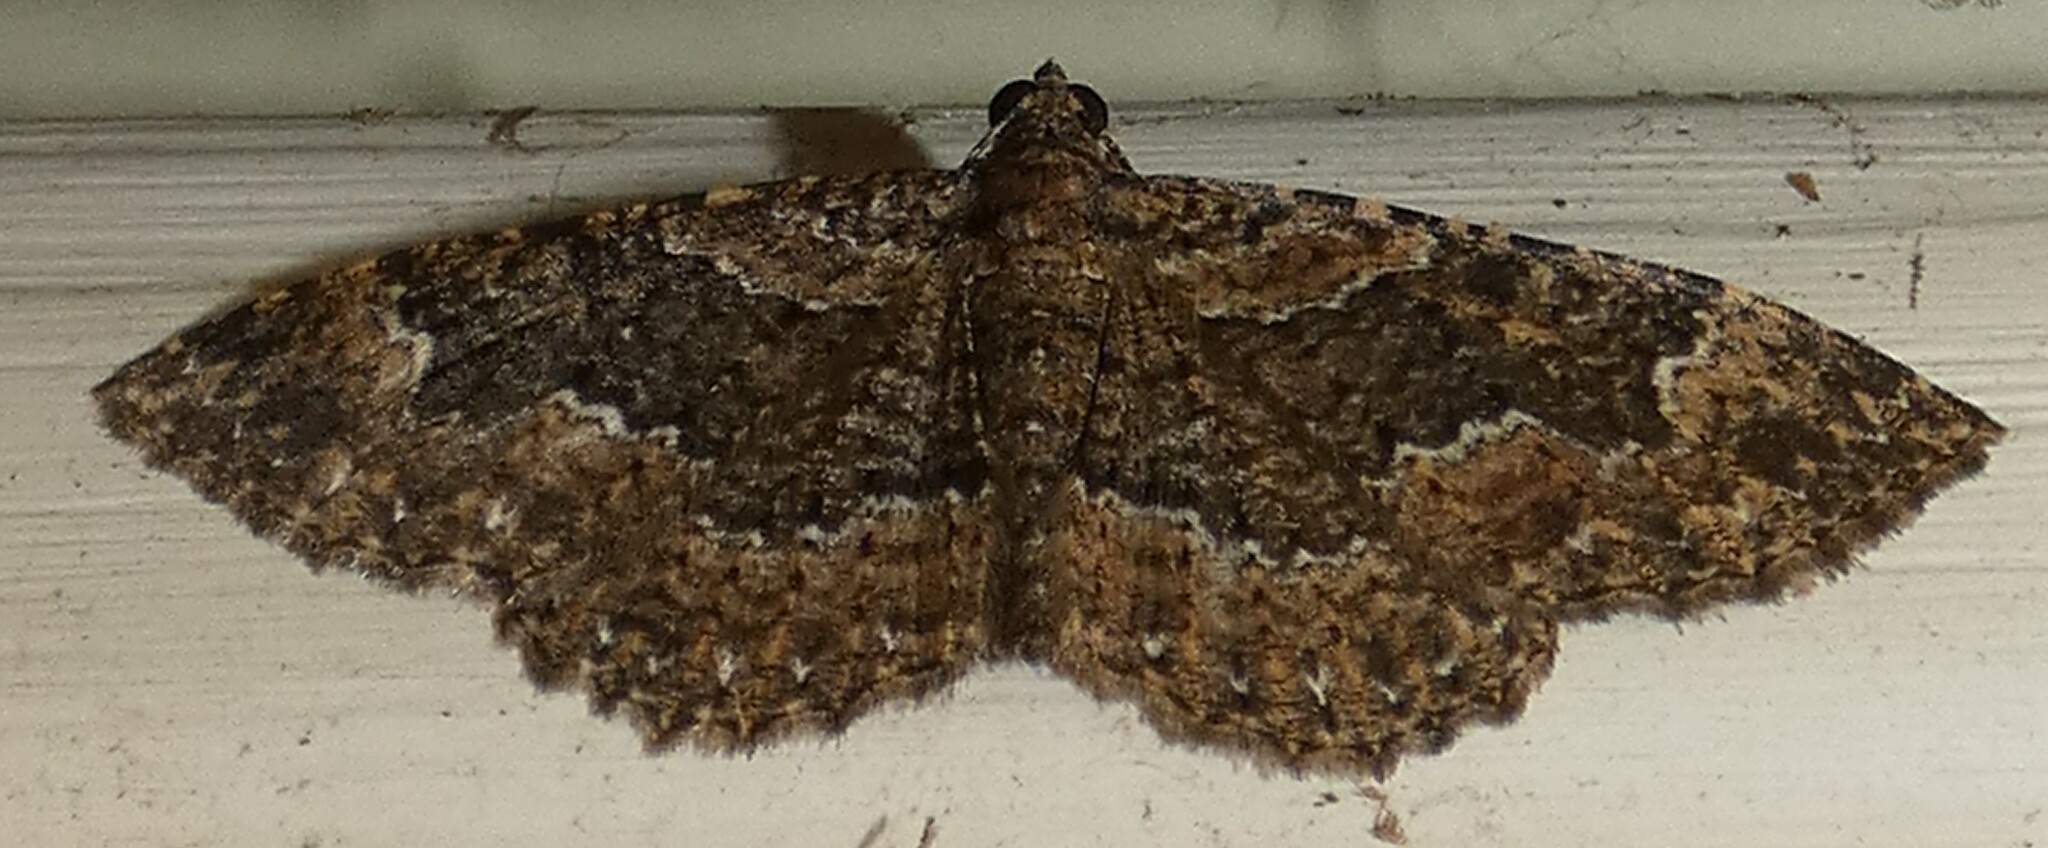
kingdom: Animalia
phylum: Arthropoda
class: Insecta
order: Lepidoptera
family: Geometridae
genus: Disclisioprocta
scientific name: Disclisioprocta stellata
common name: Somber carpet
